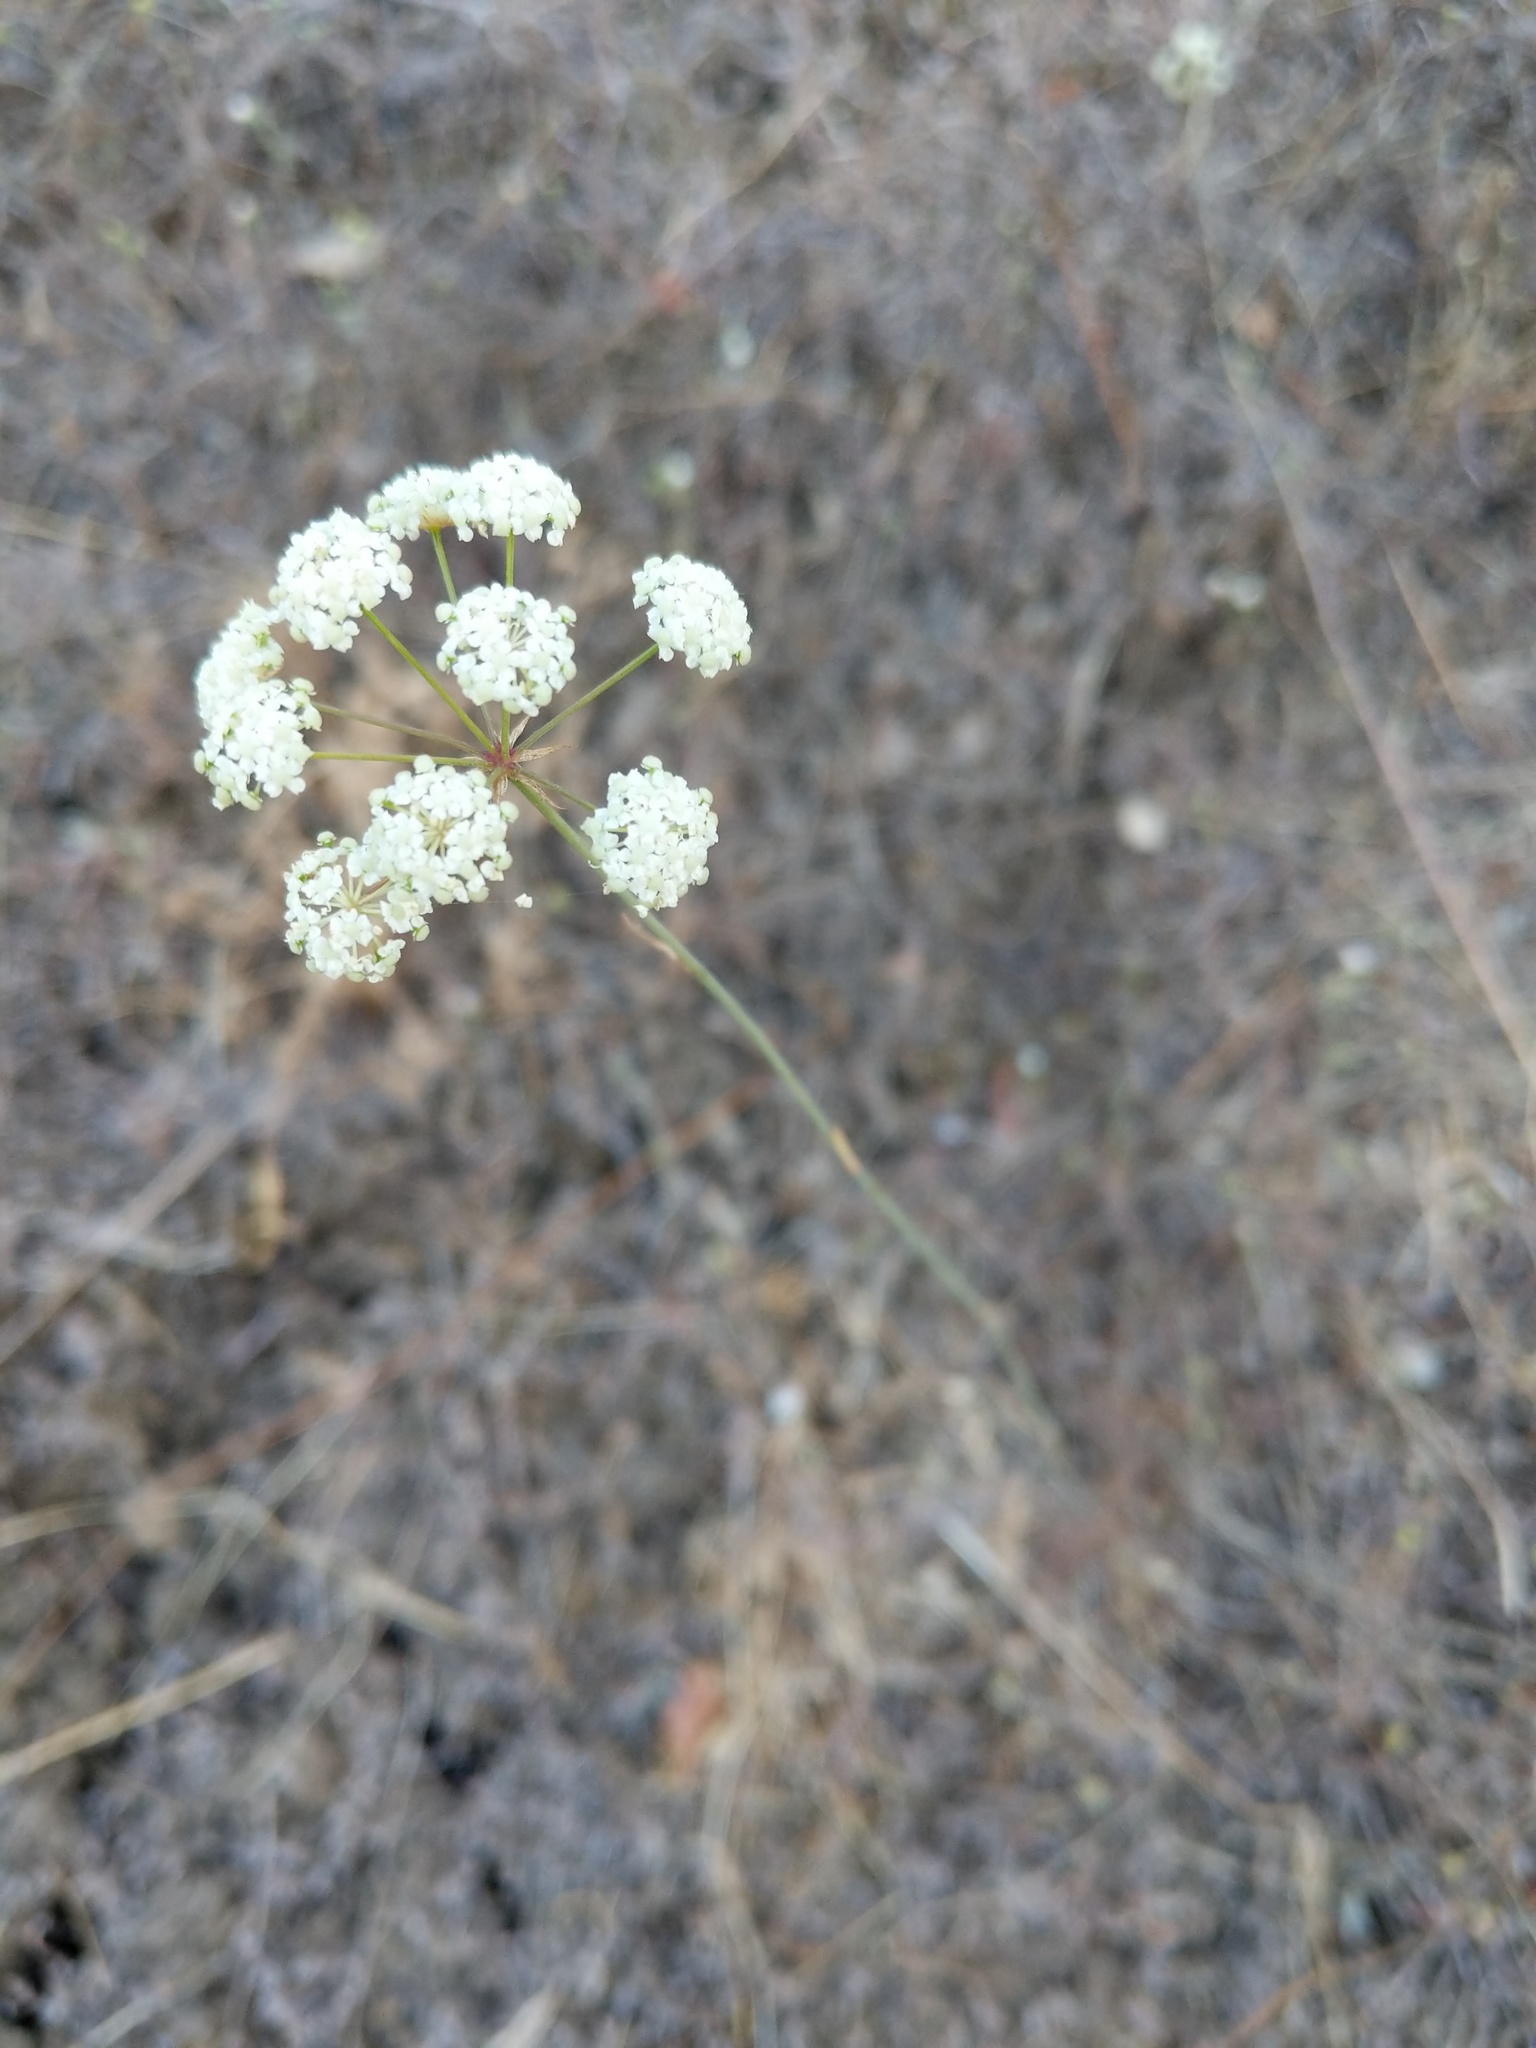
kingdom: Plantae
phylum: Tracheophyta
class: Magnoliopsida
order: Apiales
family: Apiaceae
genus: Perideridia
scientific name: Perideridia kelloggii
